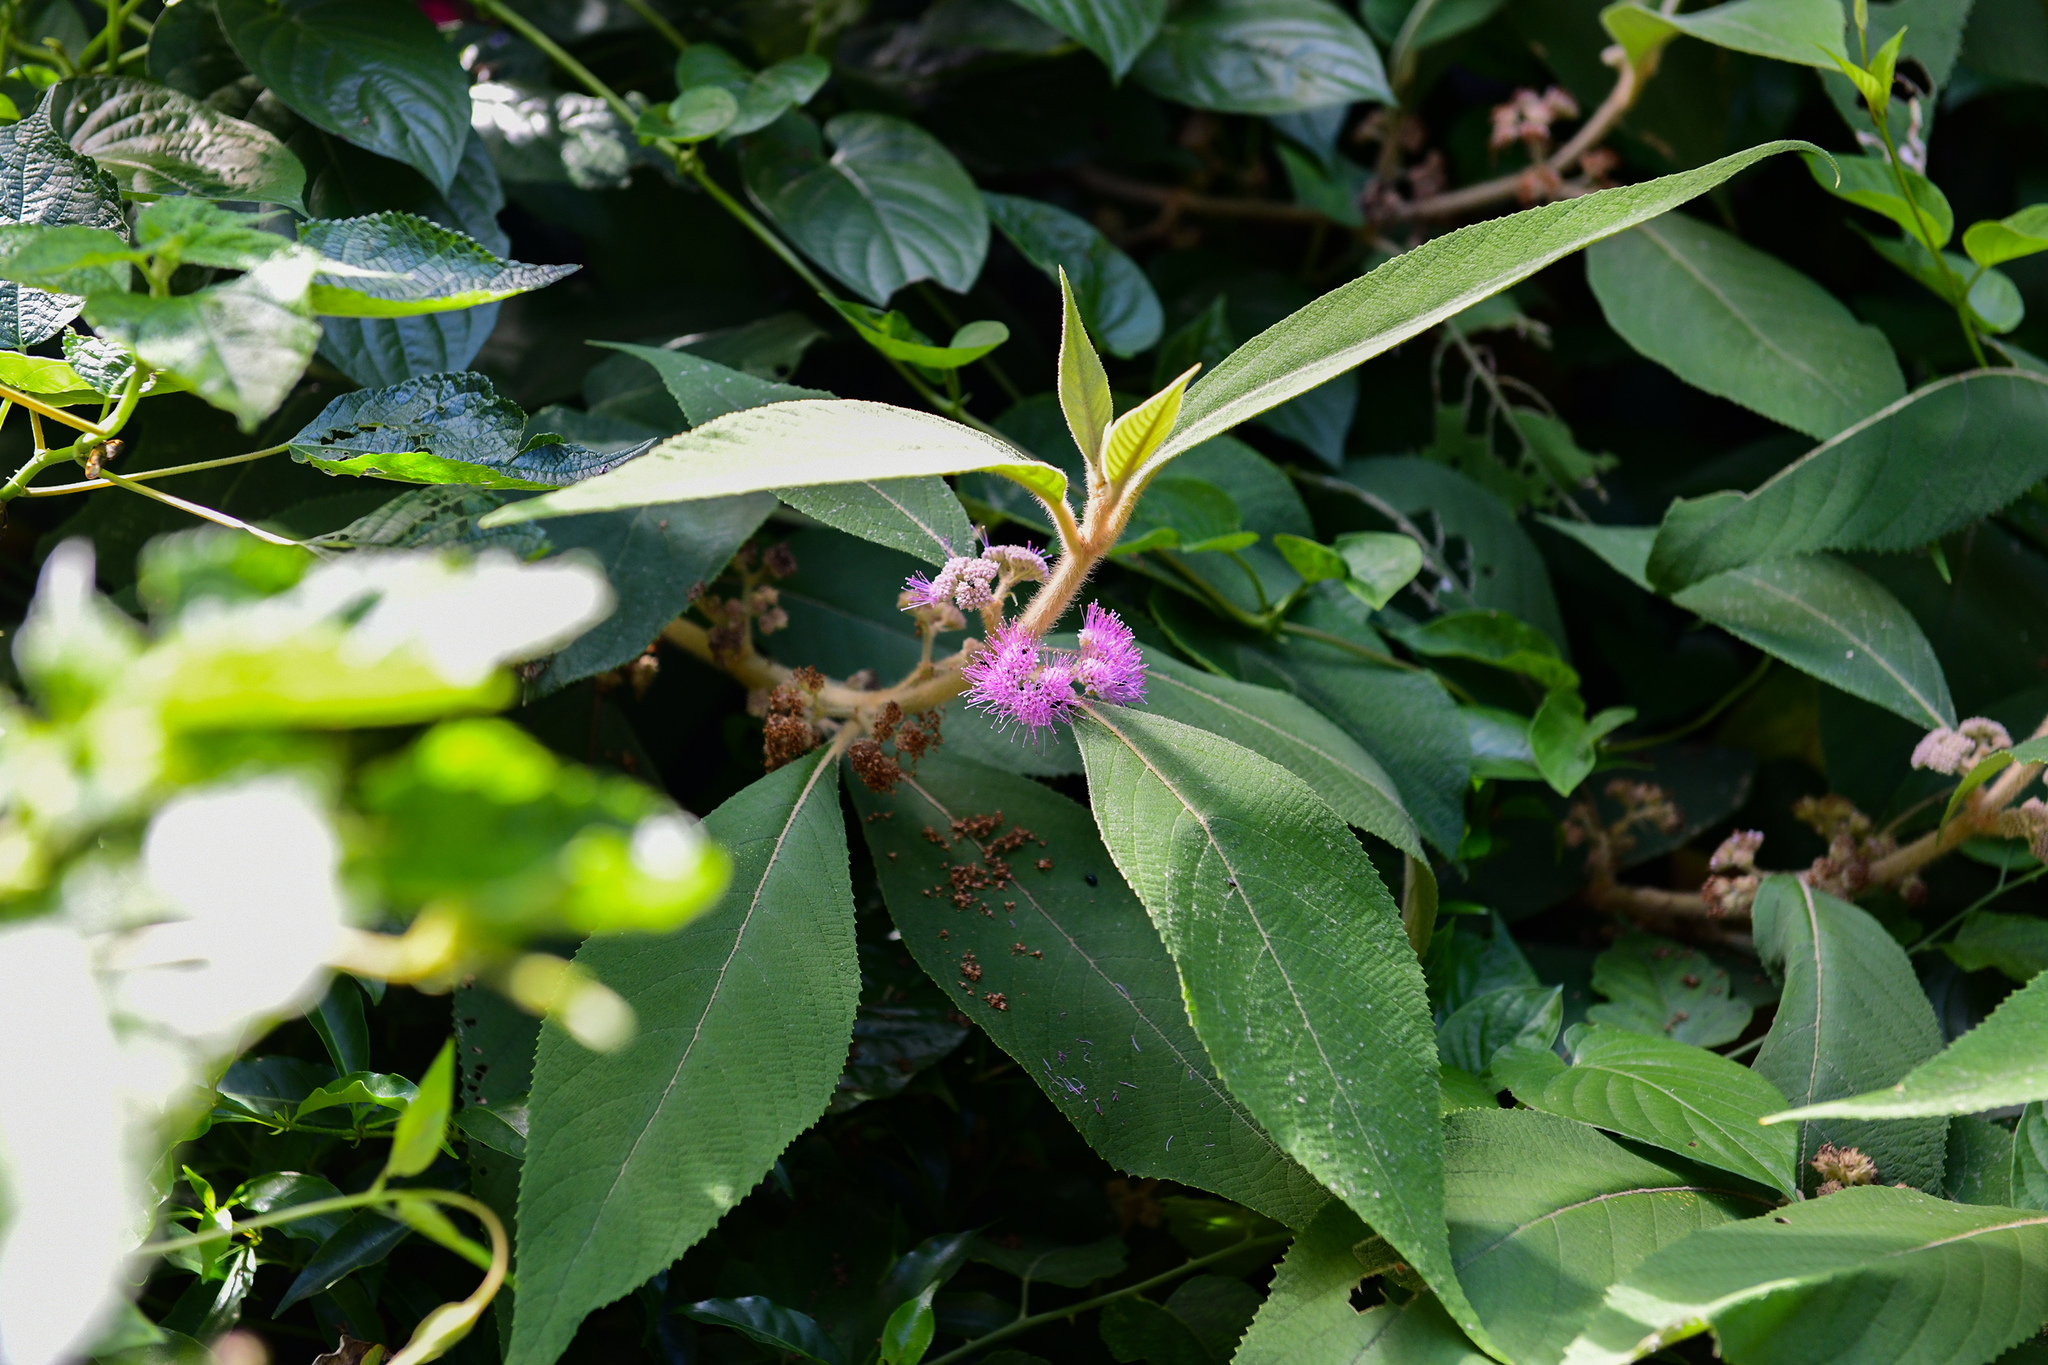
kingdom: Plantae
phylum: Tracheophyta
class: Magnoliopsida
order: Lamiales
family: Lamiaceae
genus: Callicarpa
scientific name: Callicarpa kochiana
